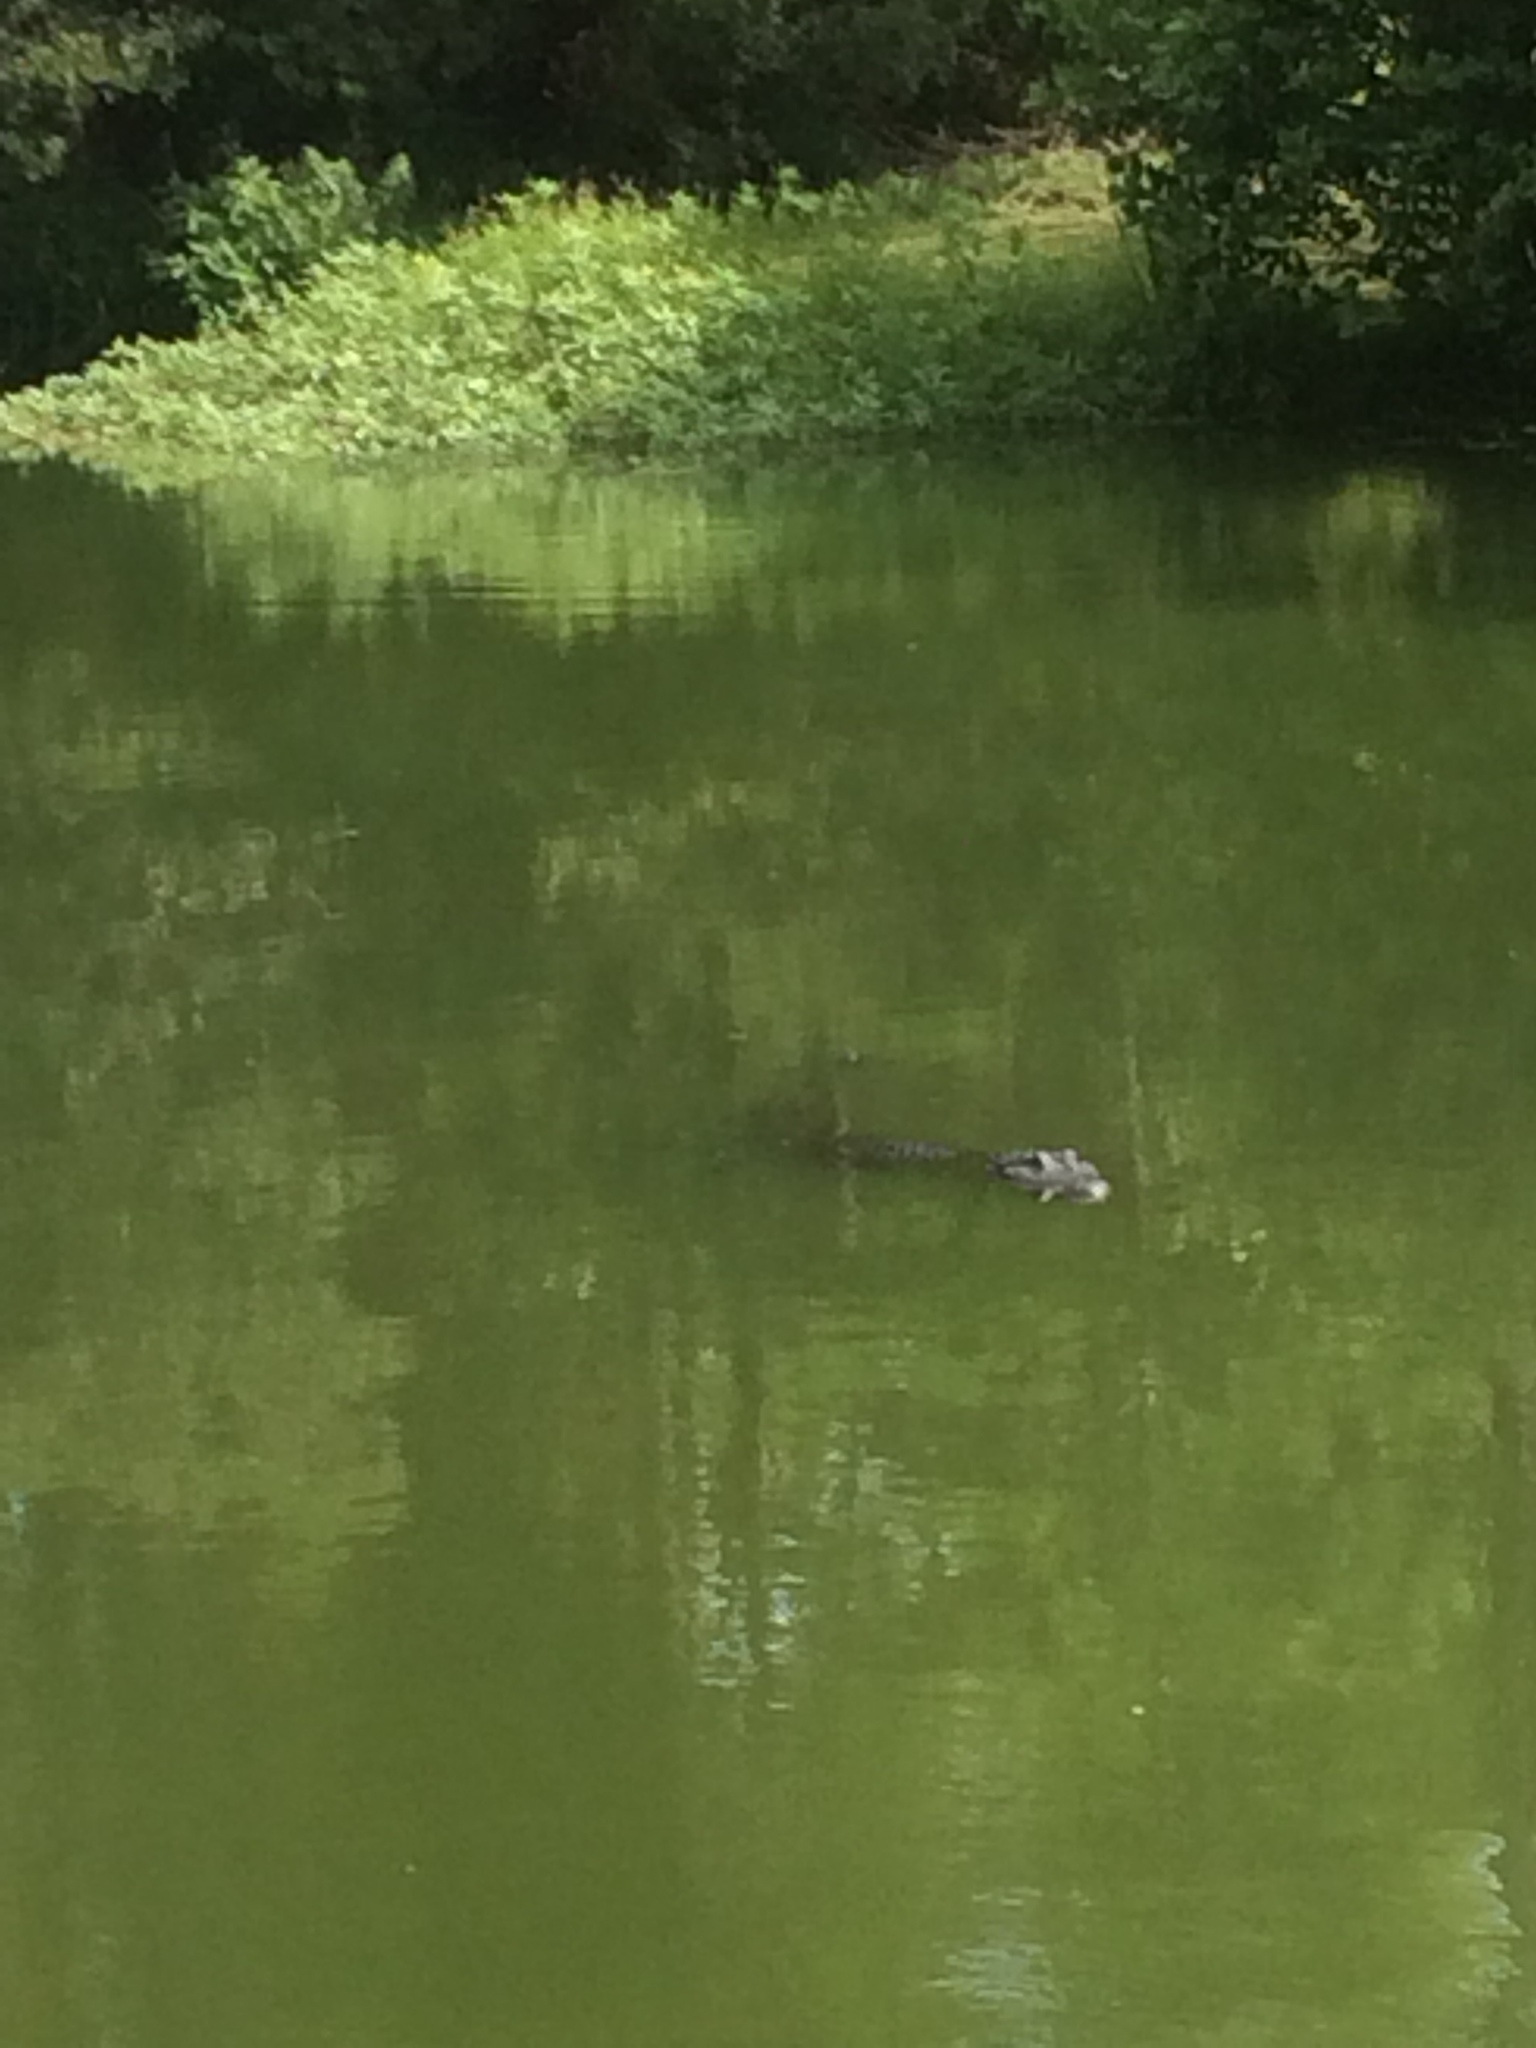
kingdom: Animalia
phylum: Chordata
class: Crocodylia
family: Alligatoridae
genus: Alligator
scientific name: Alligator mississippiensis
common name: American alligator
